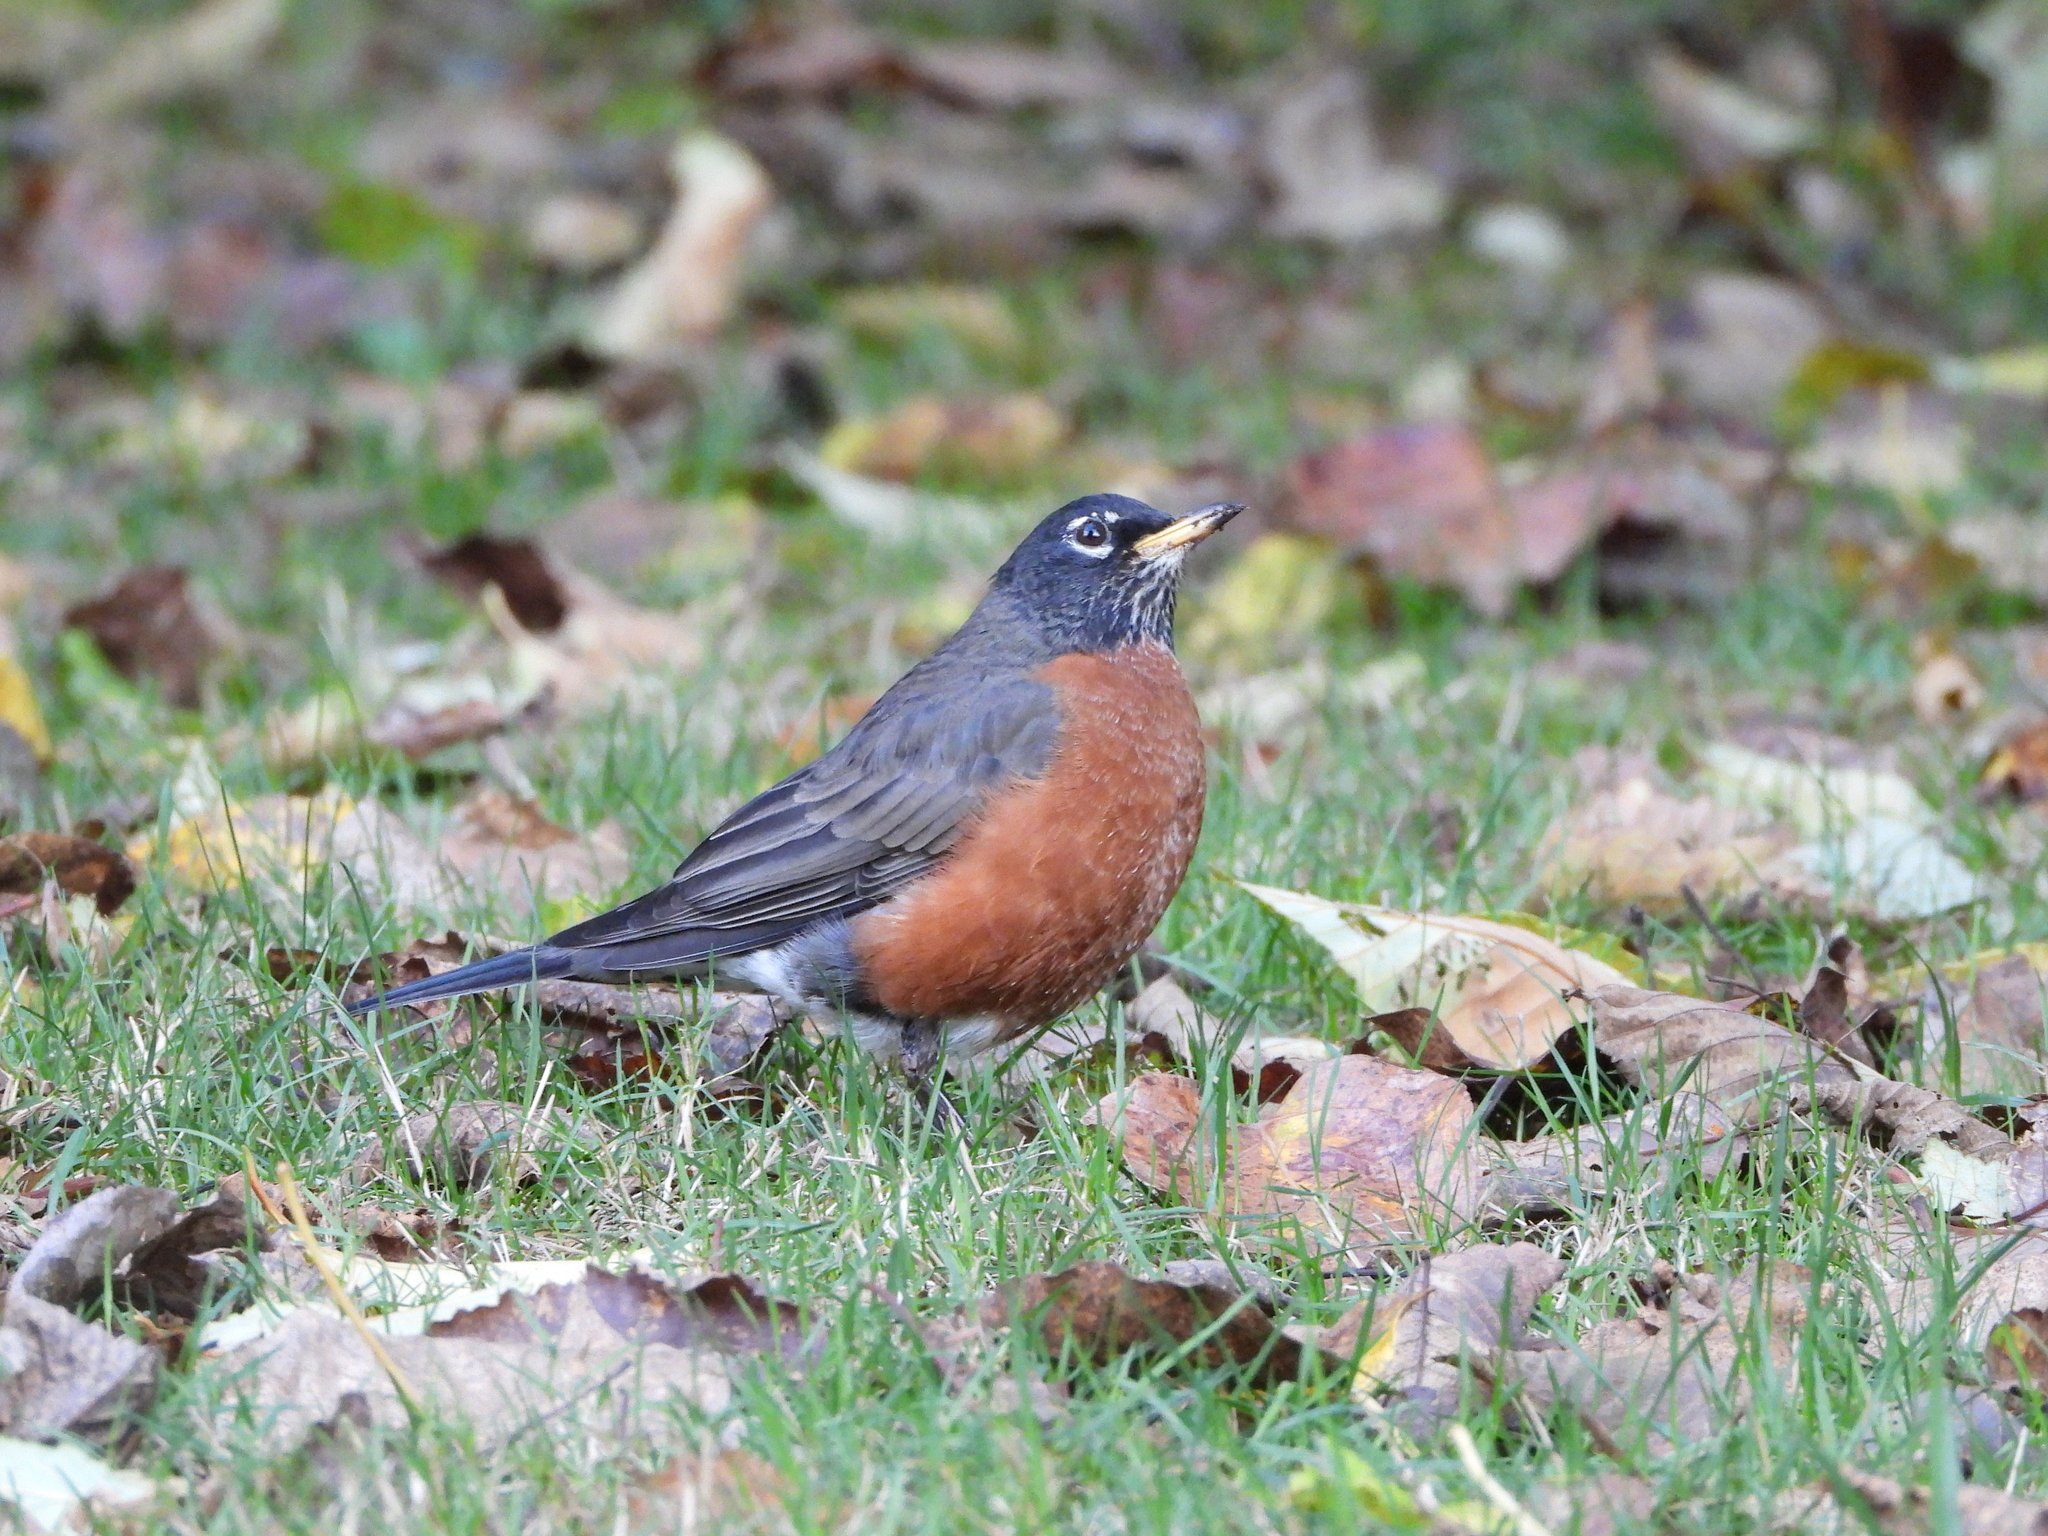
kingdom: Animalia
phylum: Chordata
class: Aves
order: Passeriformes
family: Turdidae
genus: Turdus
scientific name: Turdus migratorius
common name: American robin
